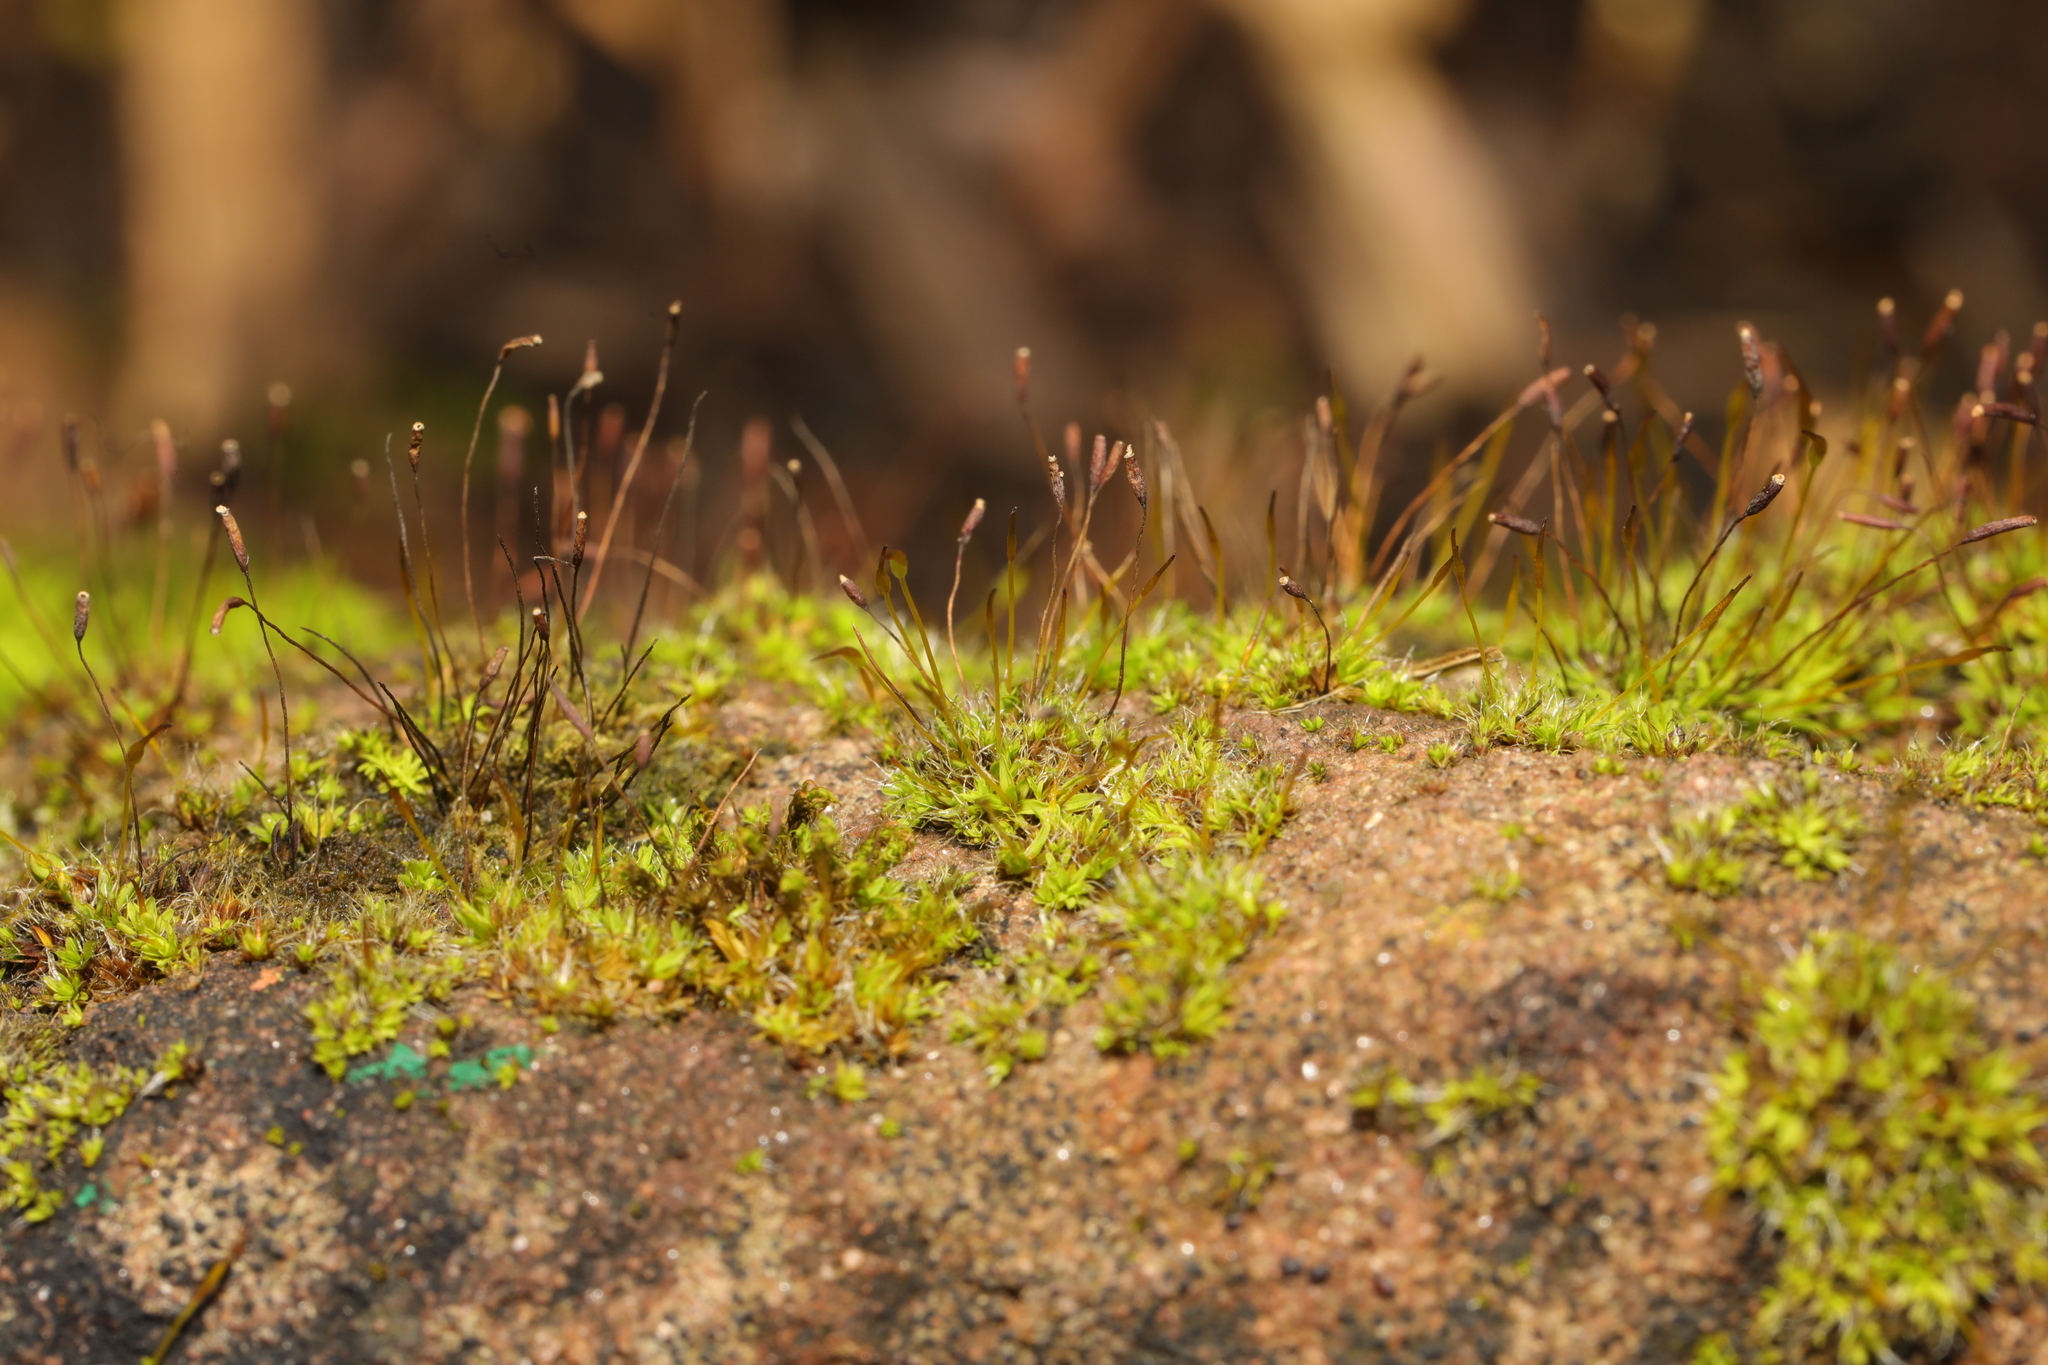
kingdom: Plantae
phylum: Bryophyta
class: Bryopsida
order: Pottiales
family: Pottiaceae
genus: Tortula
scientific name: Tortula muralis
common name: Wall screw-moss
